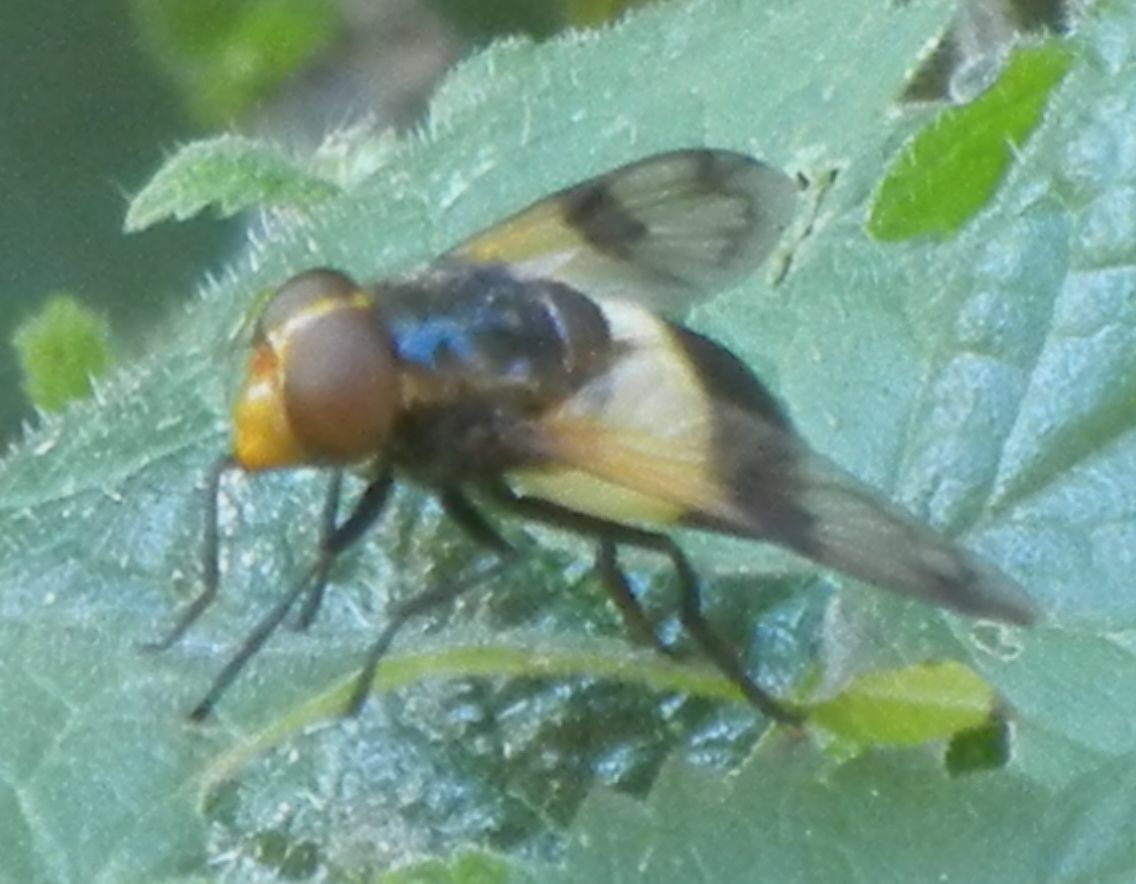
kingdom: Animalia
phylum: Arthropoda
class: Insecta
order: Diptera
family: Syrphidae
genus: Volucella
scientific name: Volucella pellucens
